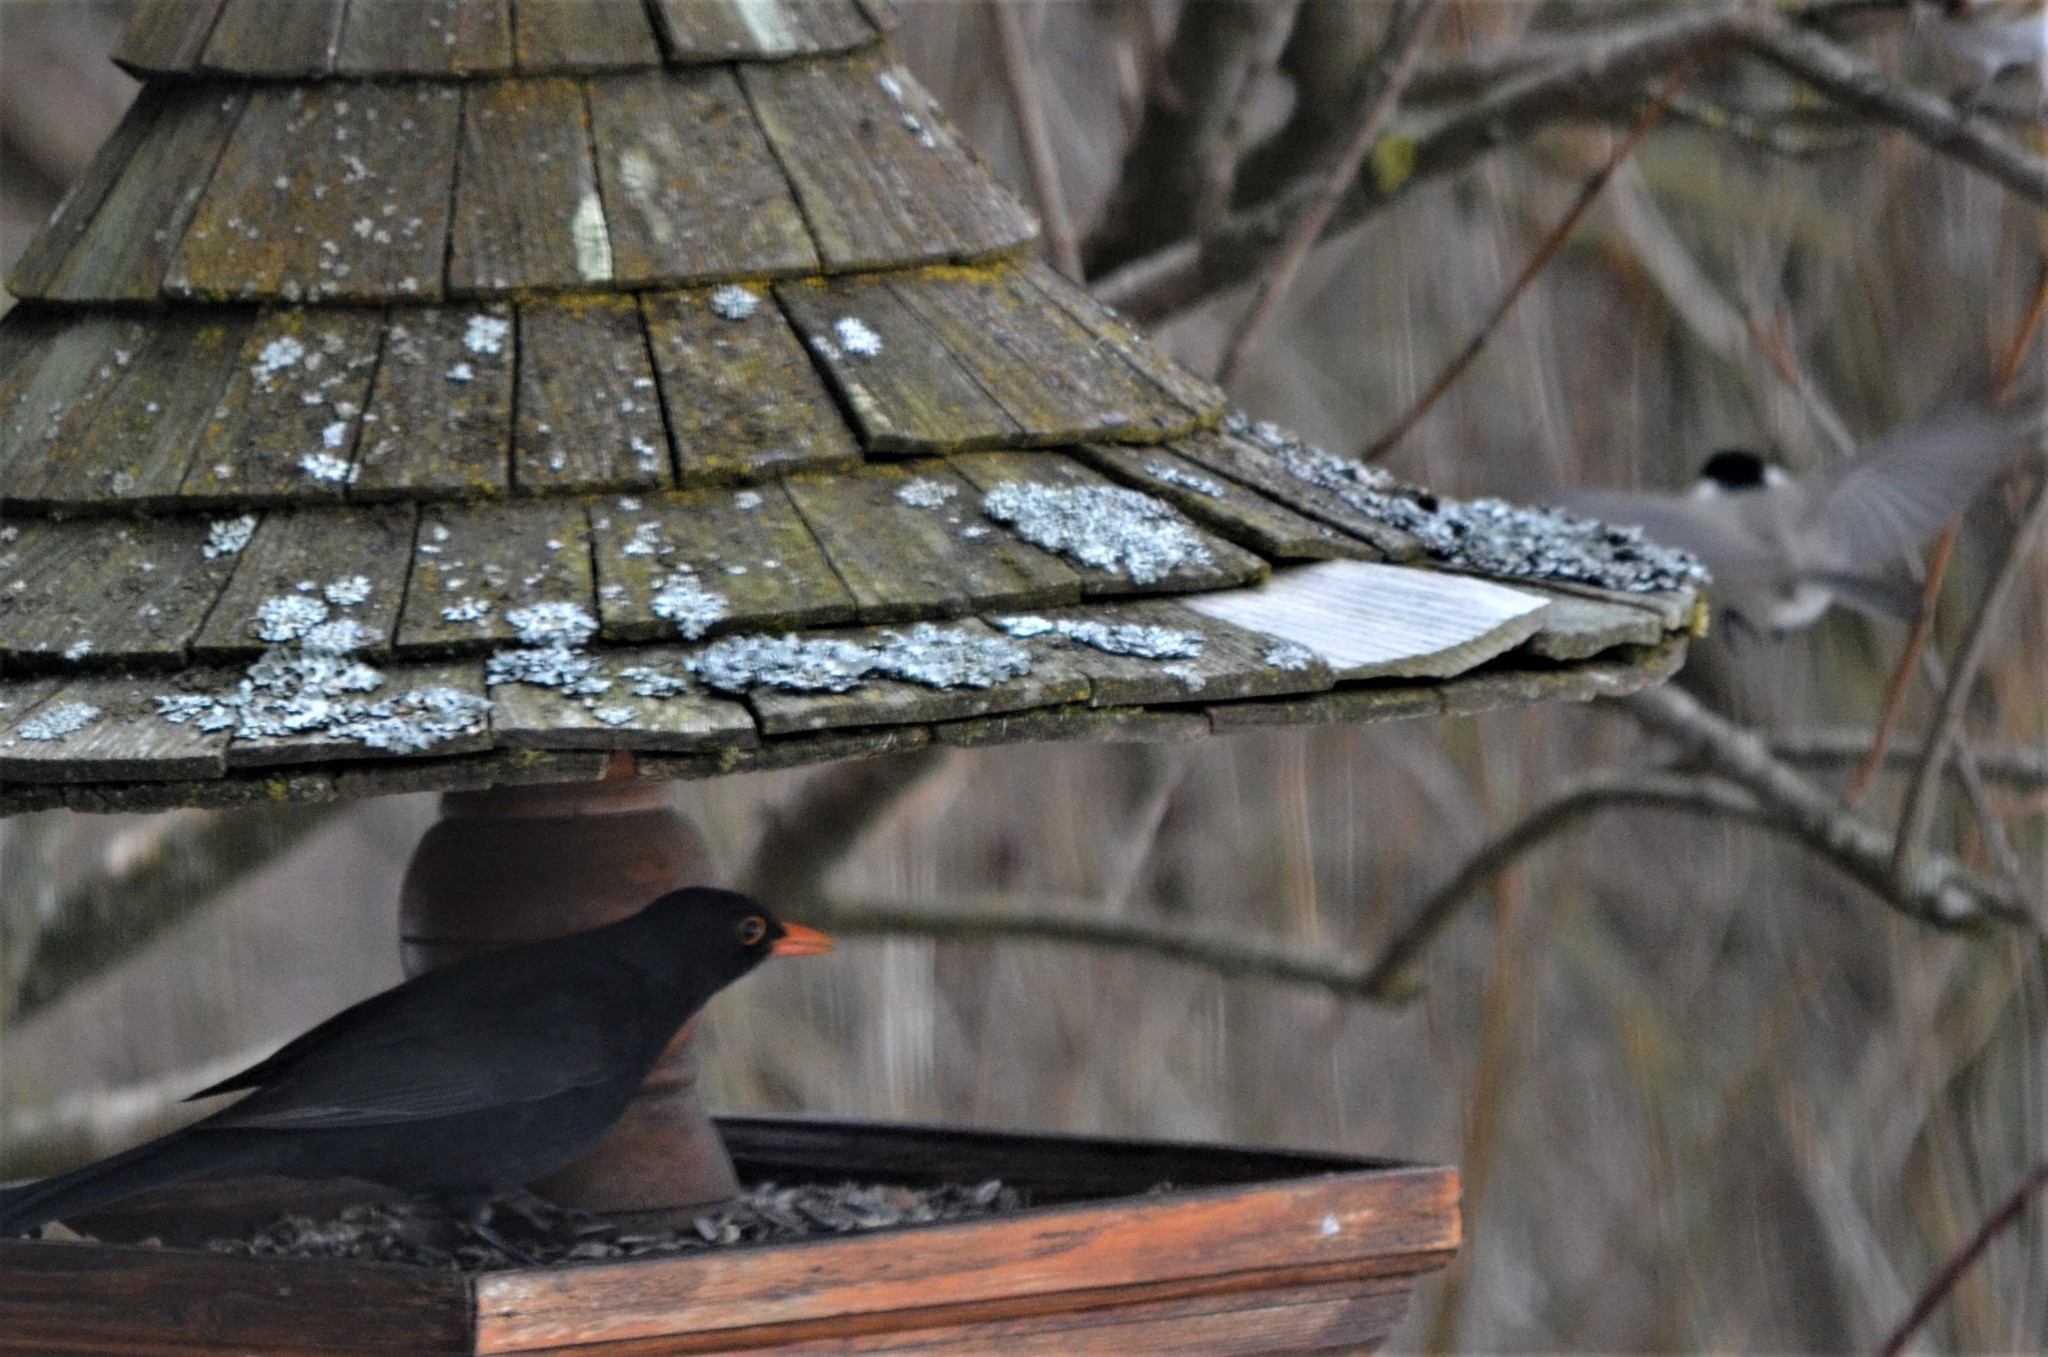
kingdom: Animalia
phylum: Chordata
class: Aves
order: Passeriformes
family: Turdidae
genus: Turdus
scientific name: Turdus merula
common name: Common blackbird
